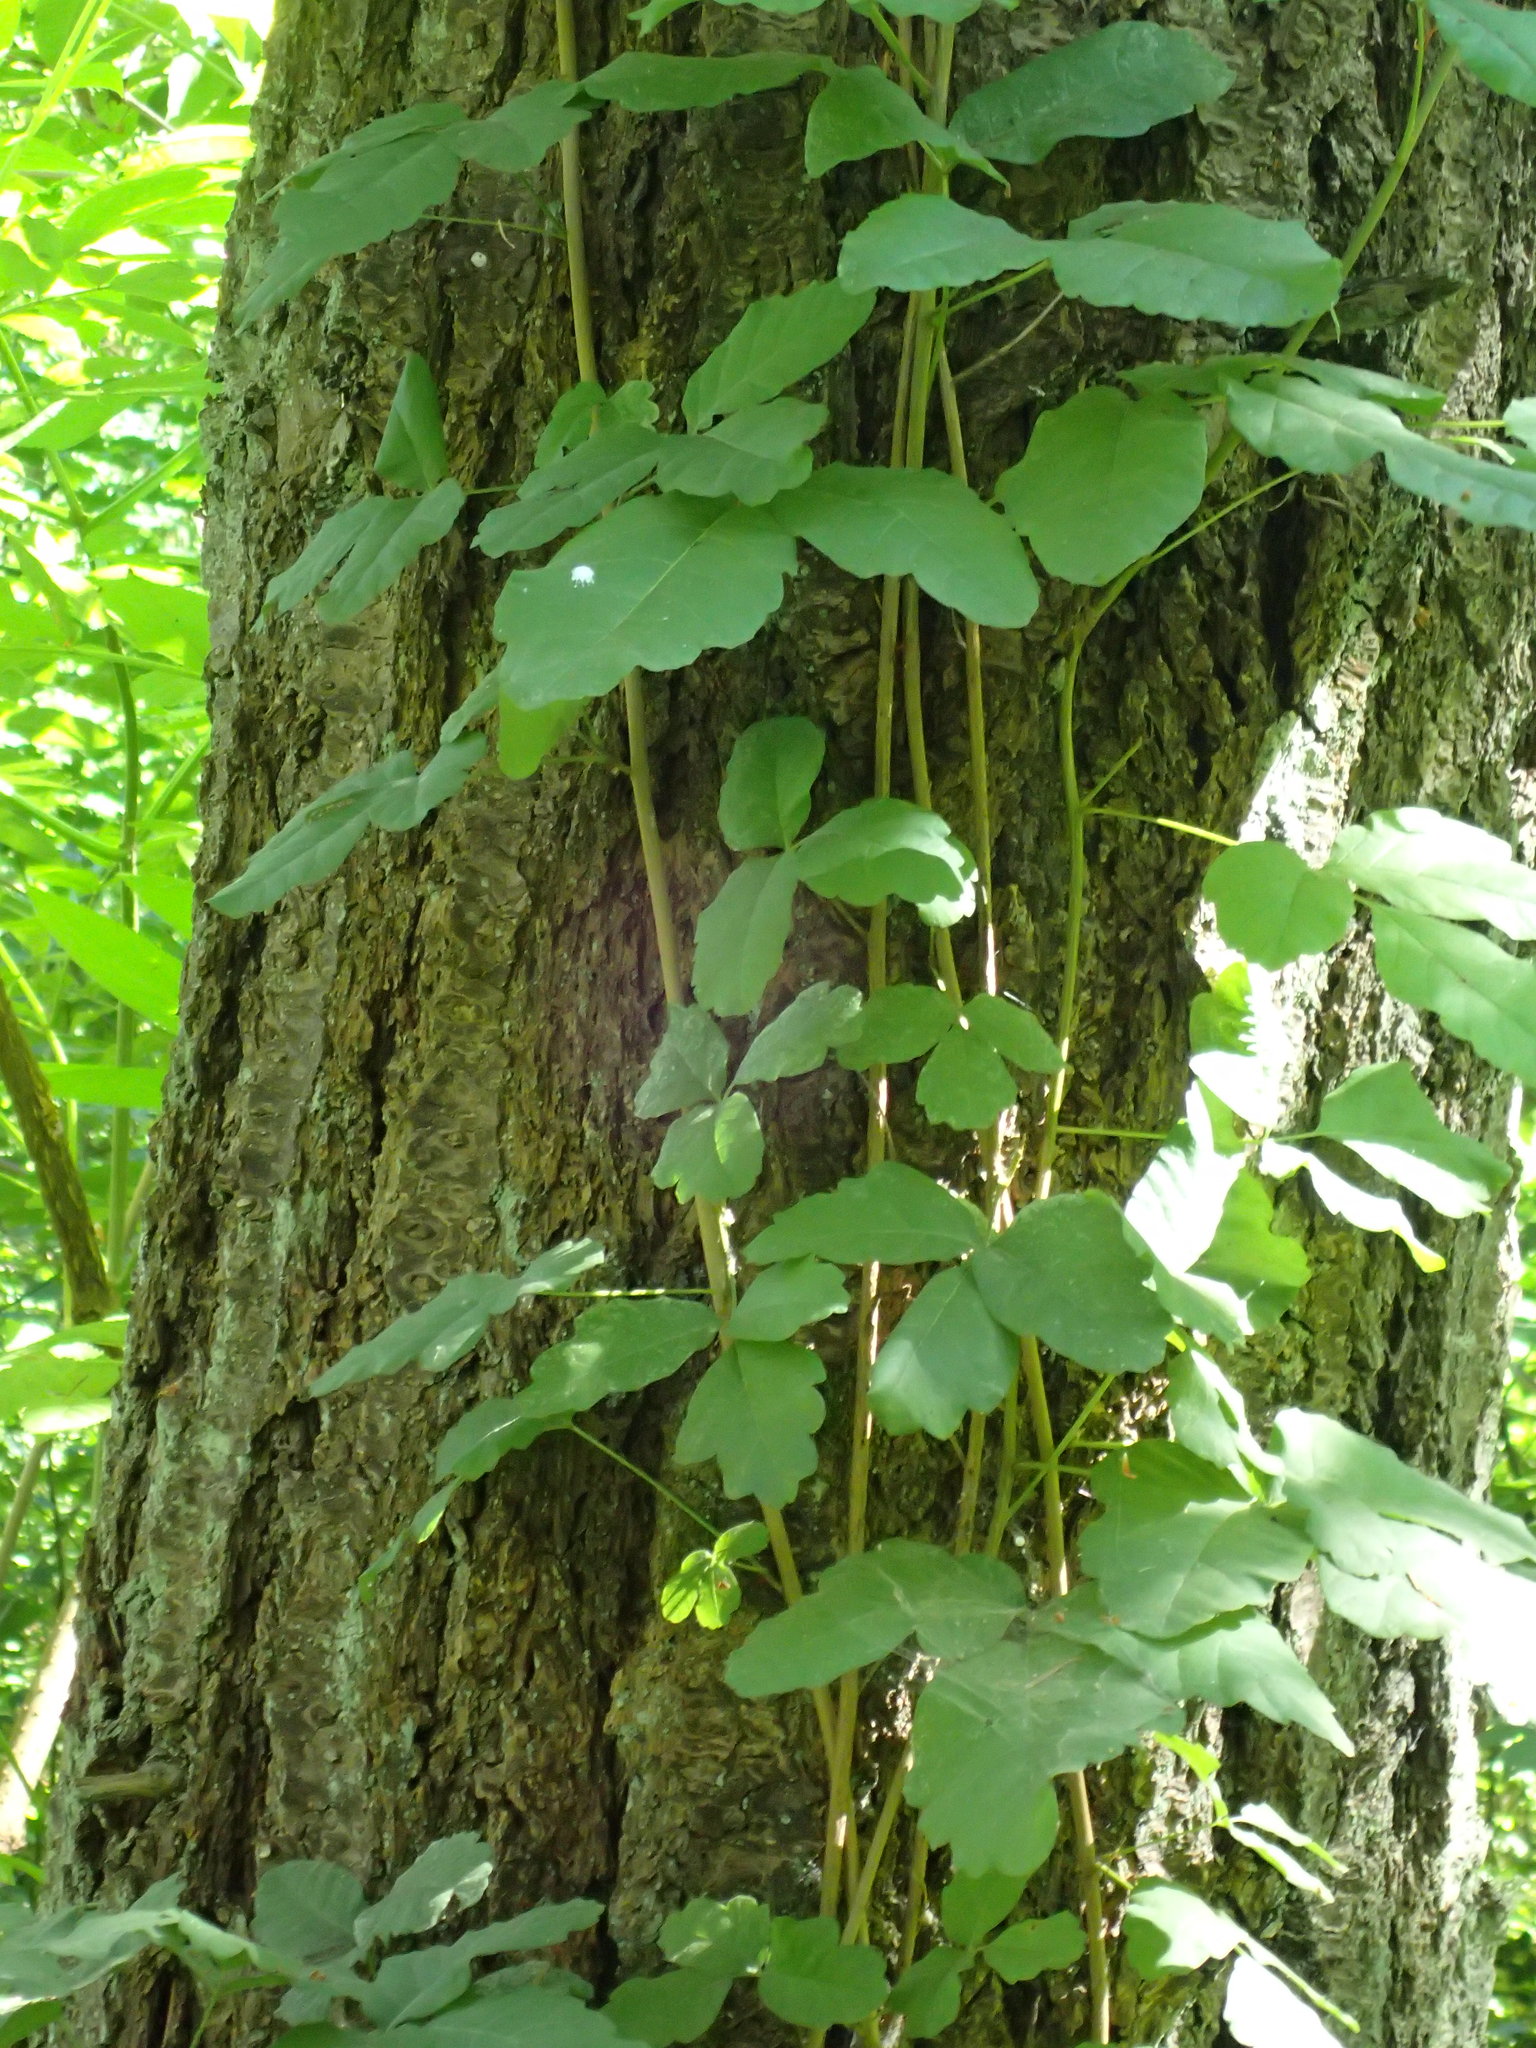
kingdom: Plantae
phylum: Tracheophyta
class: Magnoliopsida
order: Sapindales
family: Anacardiaceae
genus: Toxicodendron
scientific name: Toxicodendron diversilobum
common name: Pacific poison-oak
